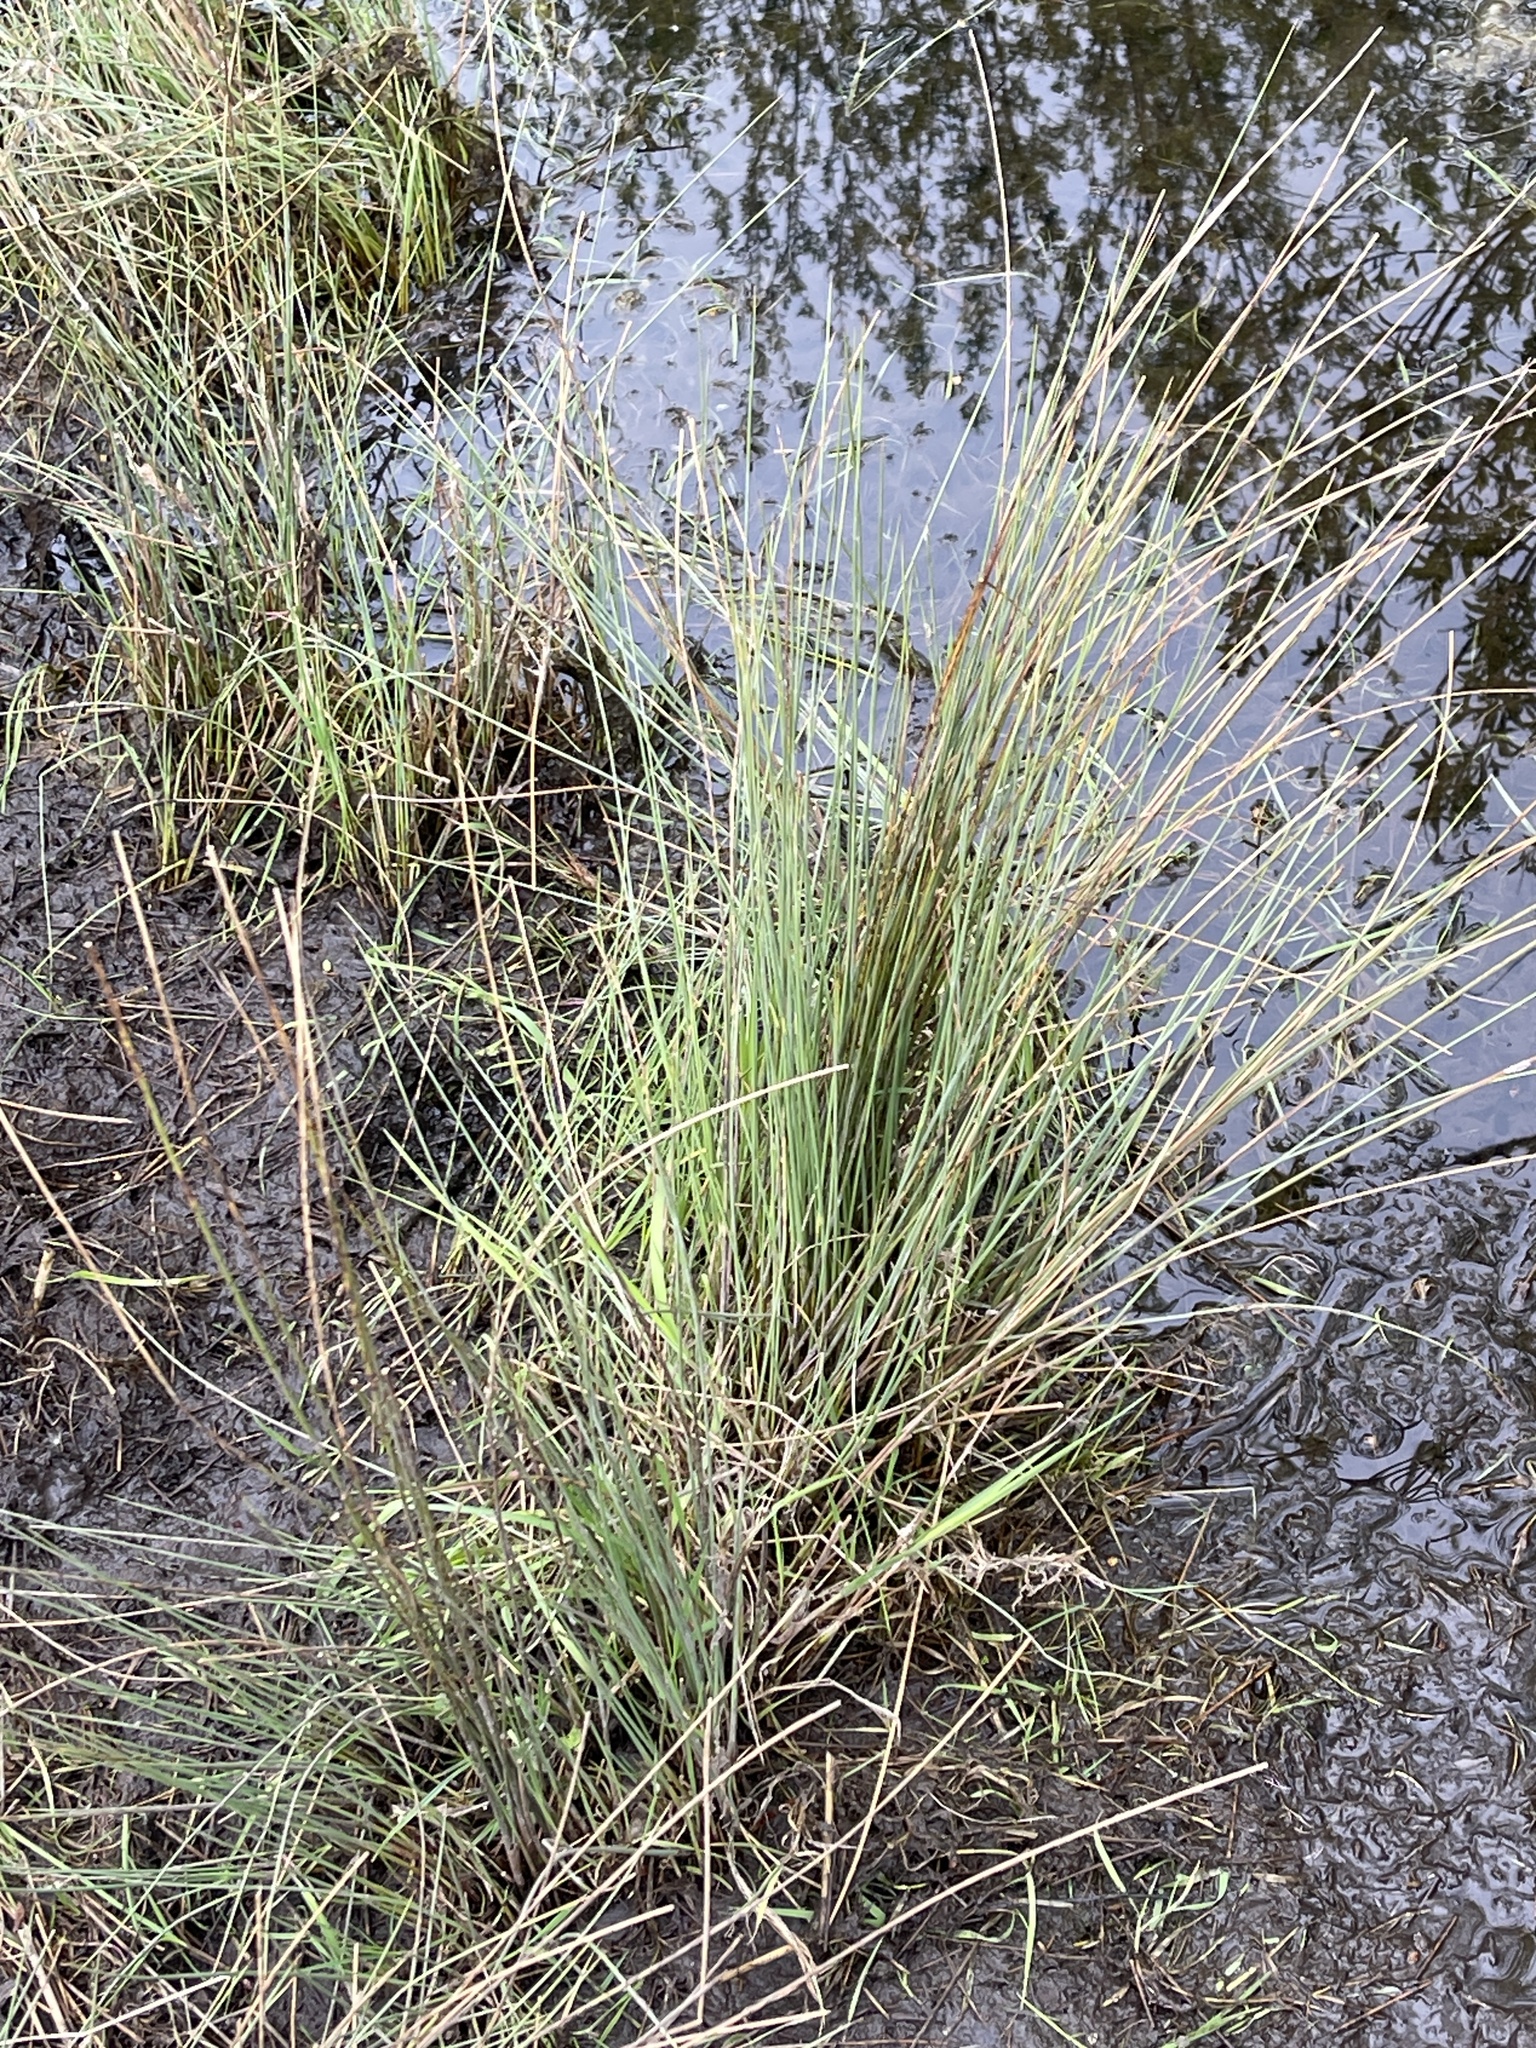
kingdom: Plantae
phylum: Tracheophyta
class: Liliopsida
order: Poales
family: Juncaceae
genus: Juncus
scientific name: Juncus inflexus
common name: Hard rush
